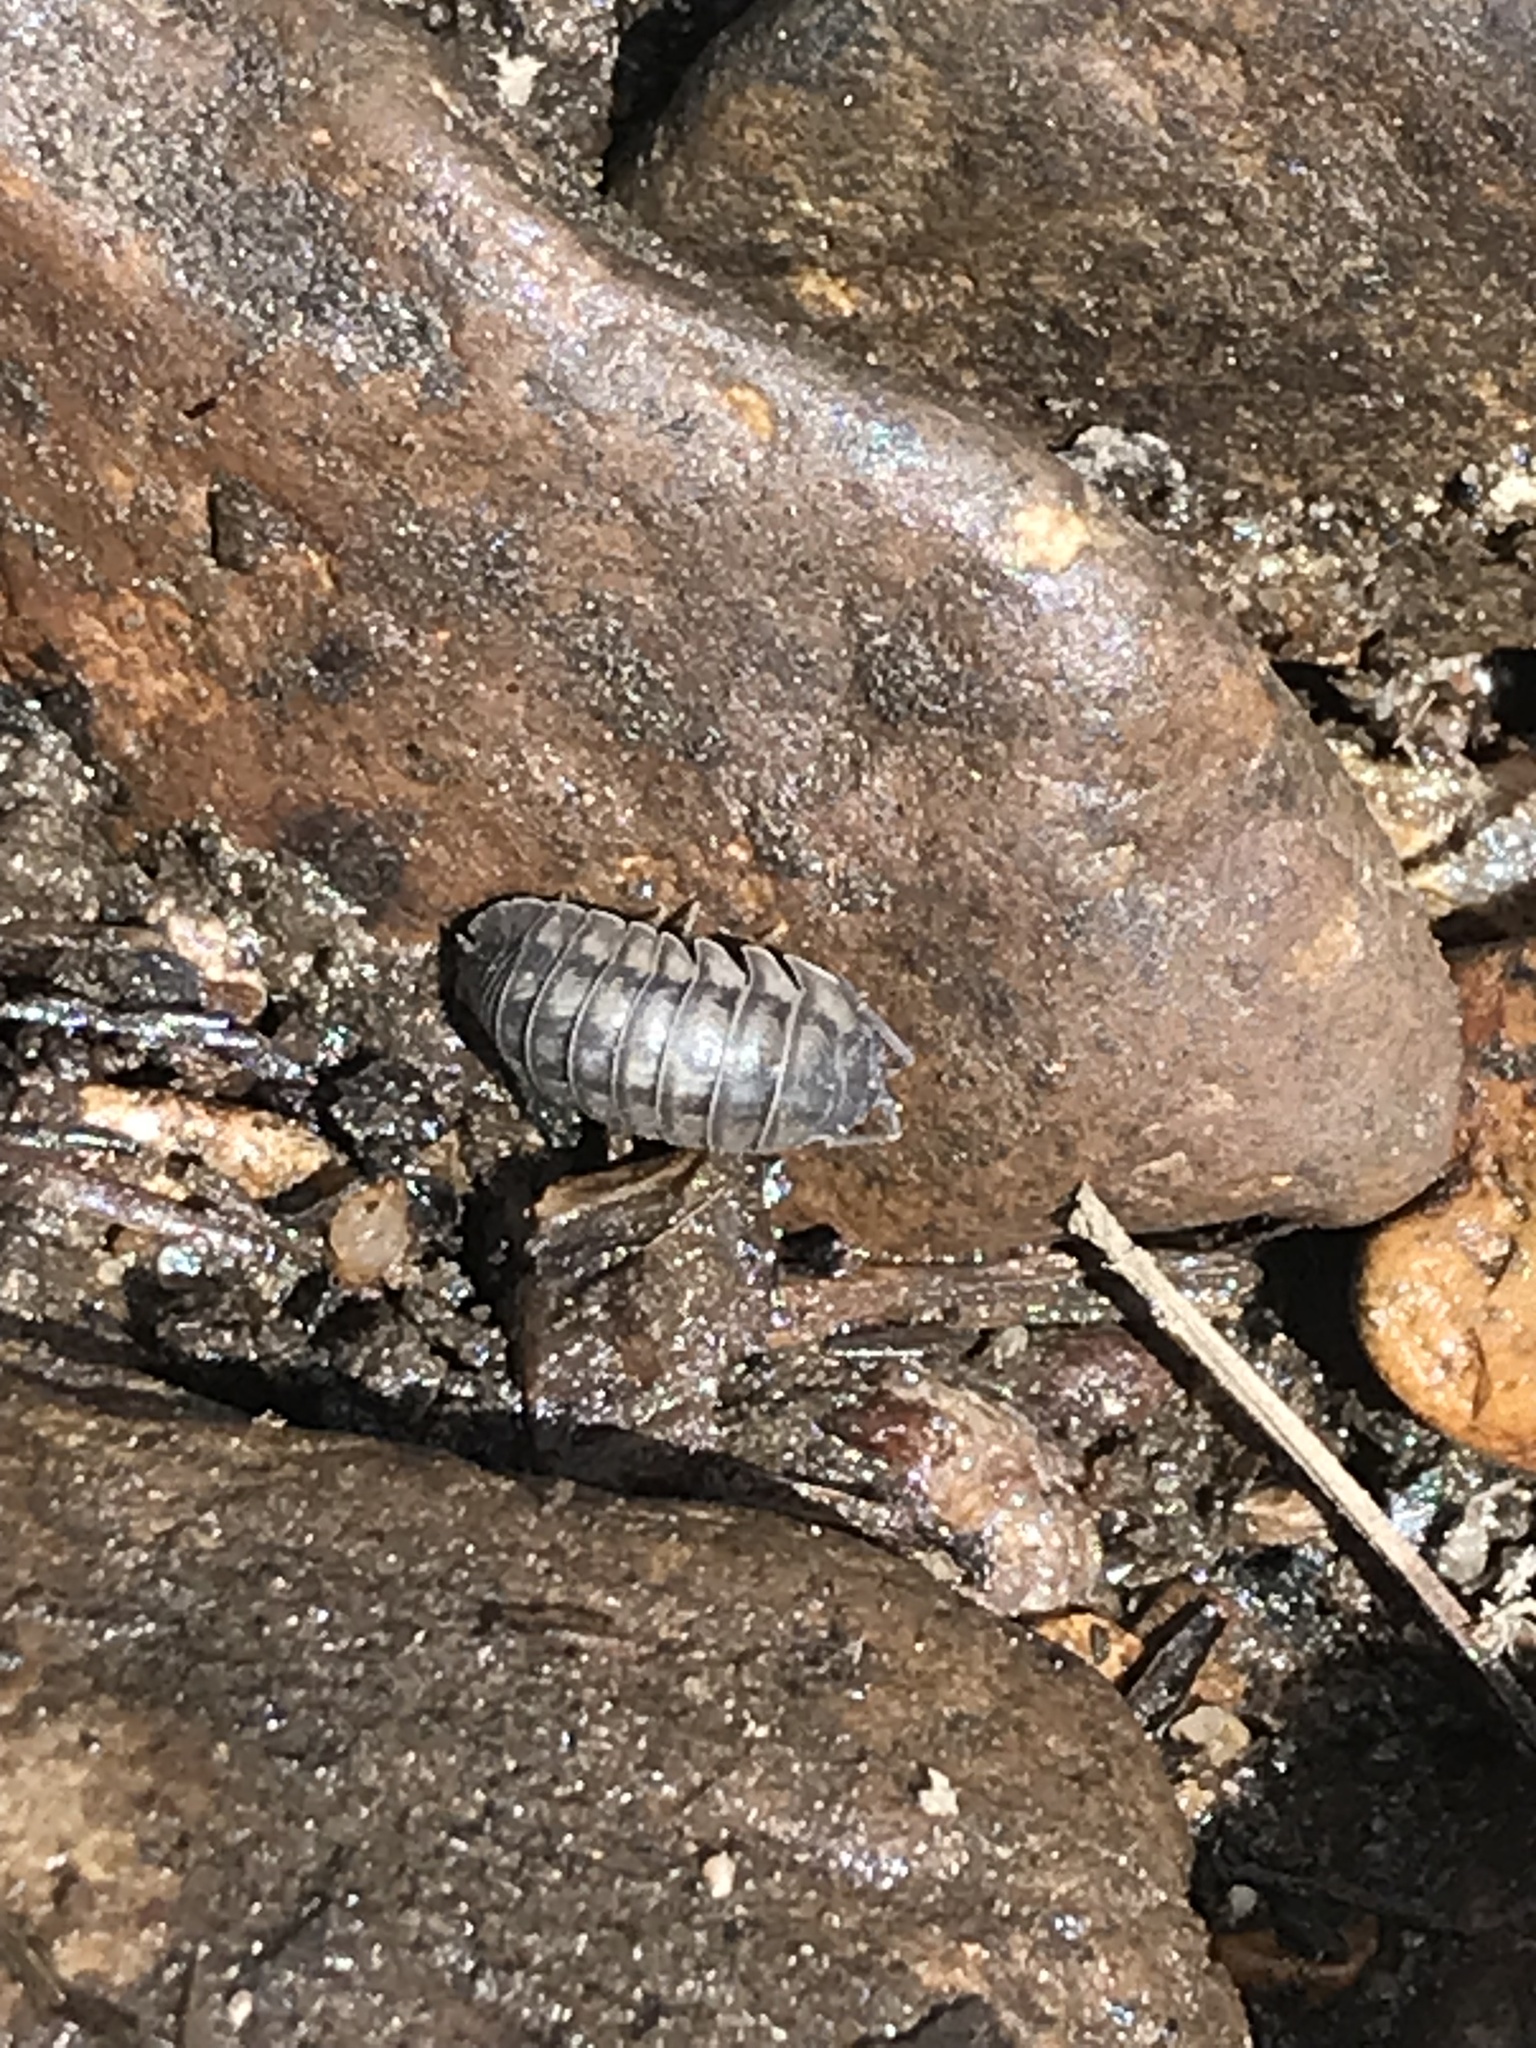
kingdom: Animalia
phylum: Arthropoda
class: Malacostraca
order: Isopoda
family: Armadillidiidae
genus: Armadillidium
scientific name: Armadillidium nasatum
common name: Isopod
